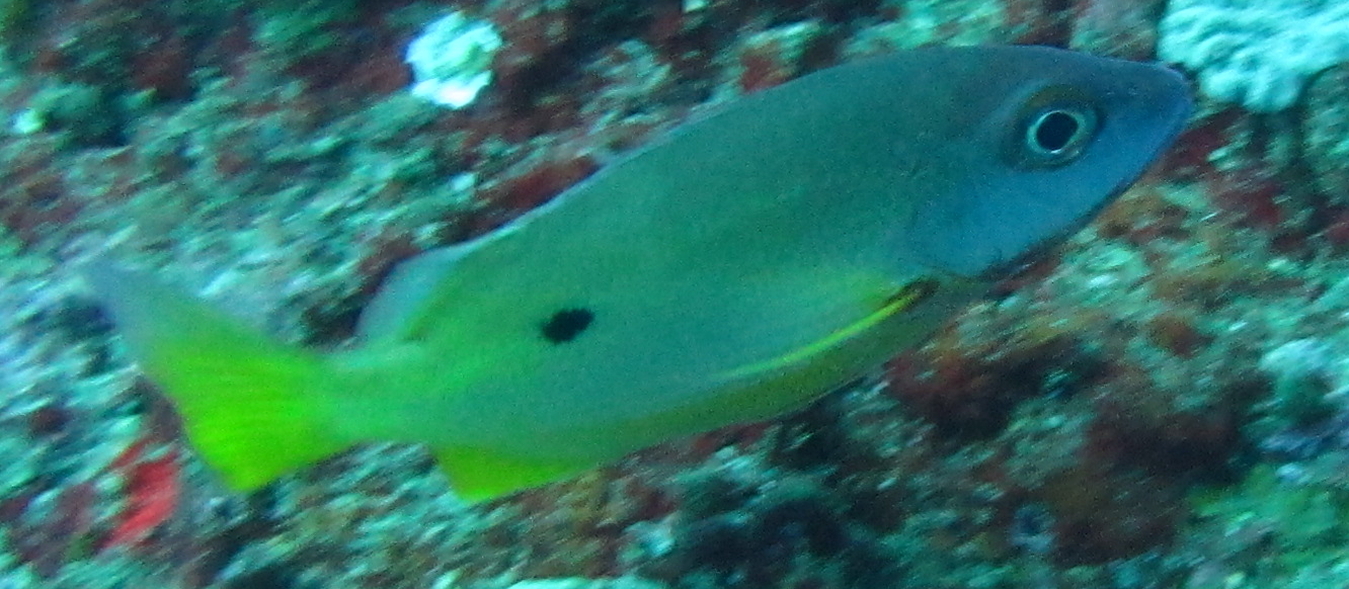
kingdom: Animalia
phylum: Chordata
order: Perciformes
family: Lutjanidae
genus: Lutjanus
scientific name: Lutjanus fulviflamma
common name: Blackspot snapper
